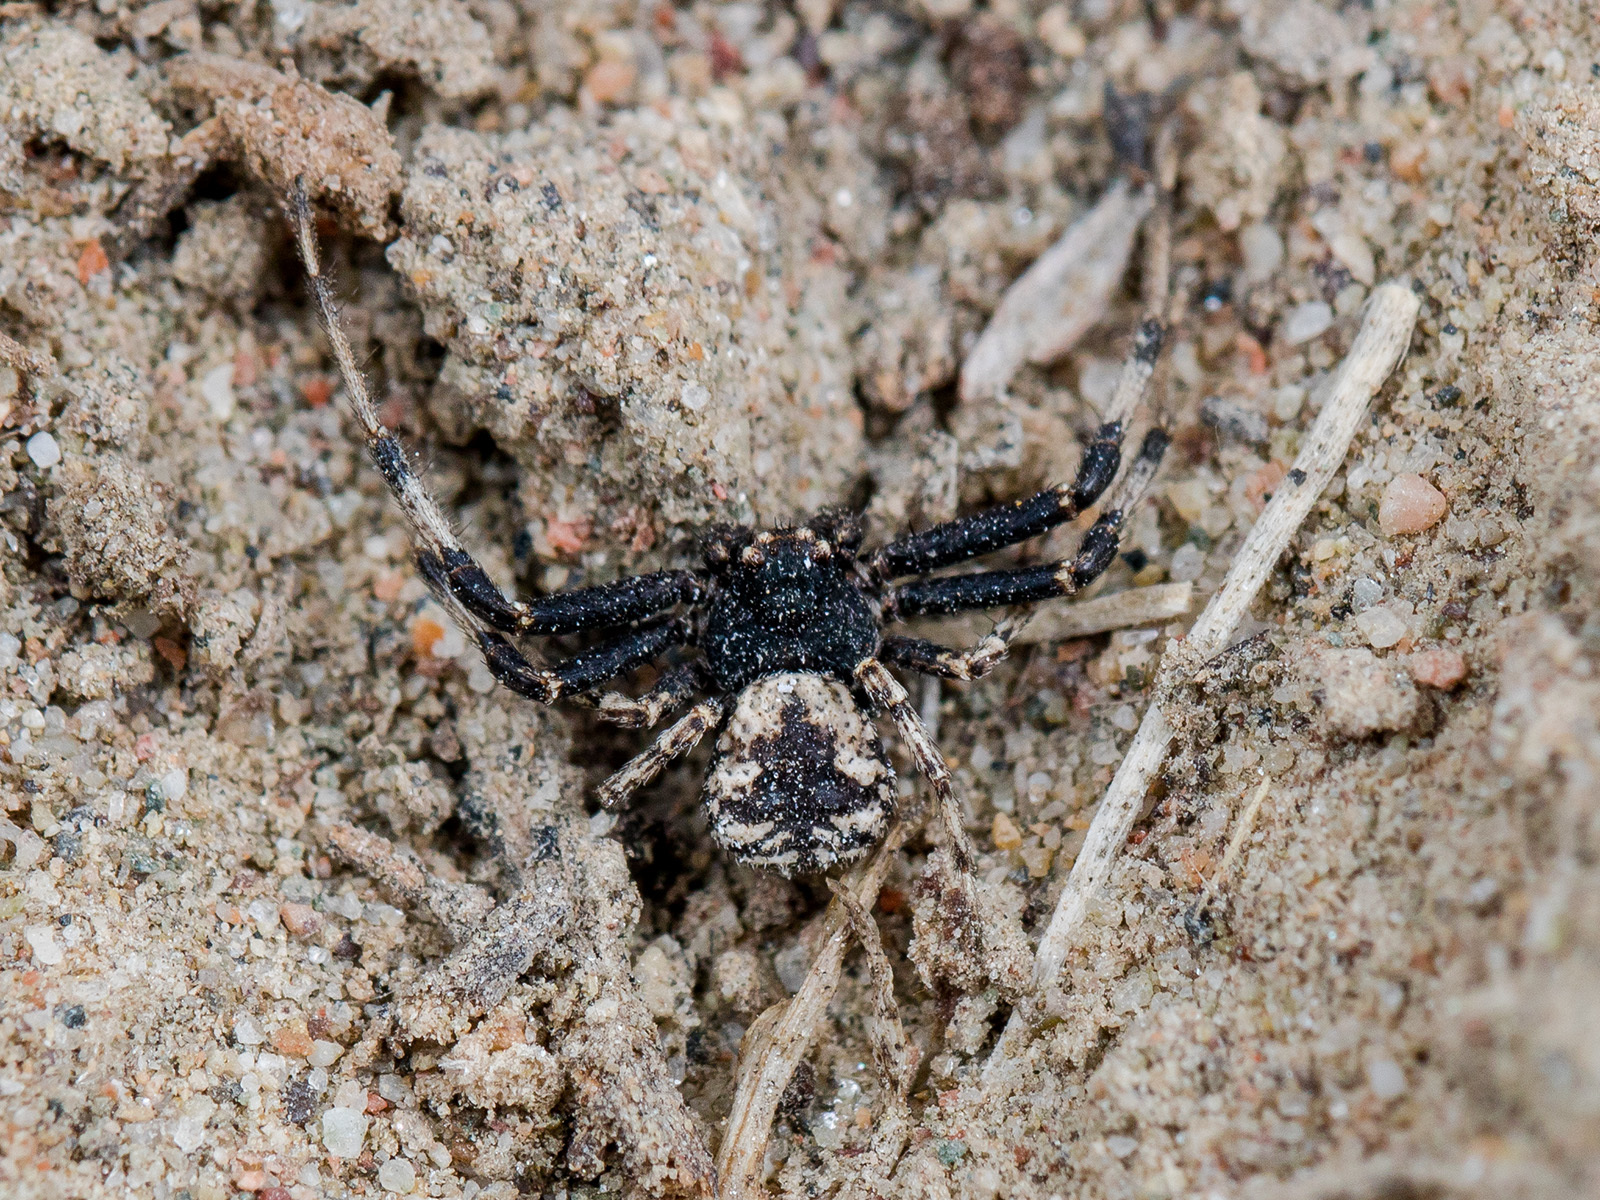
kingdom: Animalia
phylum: Arthropoda
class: Arachnida
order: Araneae
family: Thomisidae
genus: Ozyptila
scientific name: Ozyptila tuberosa
